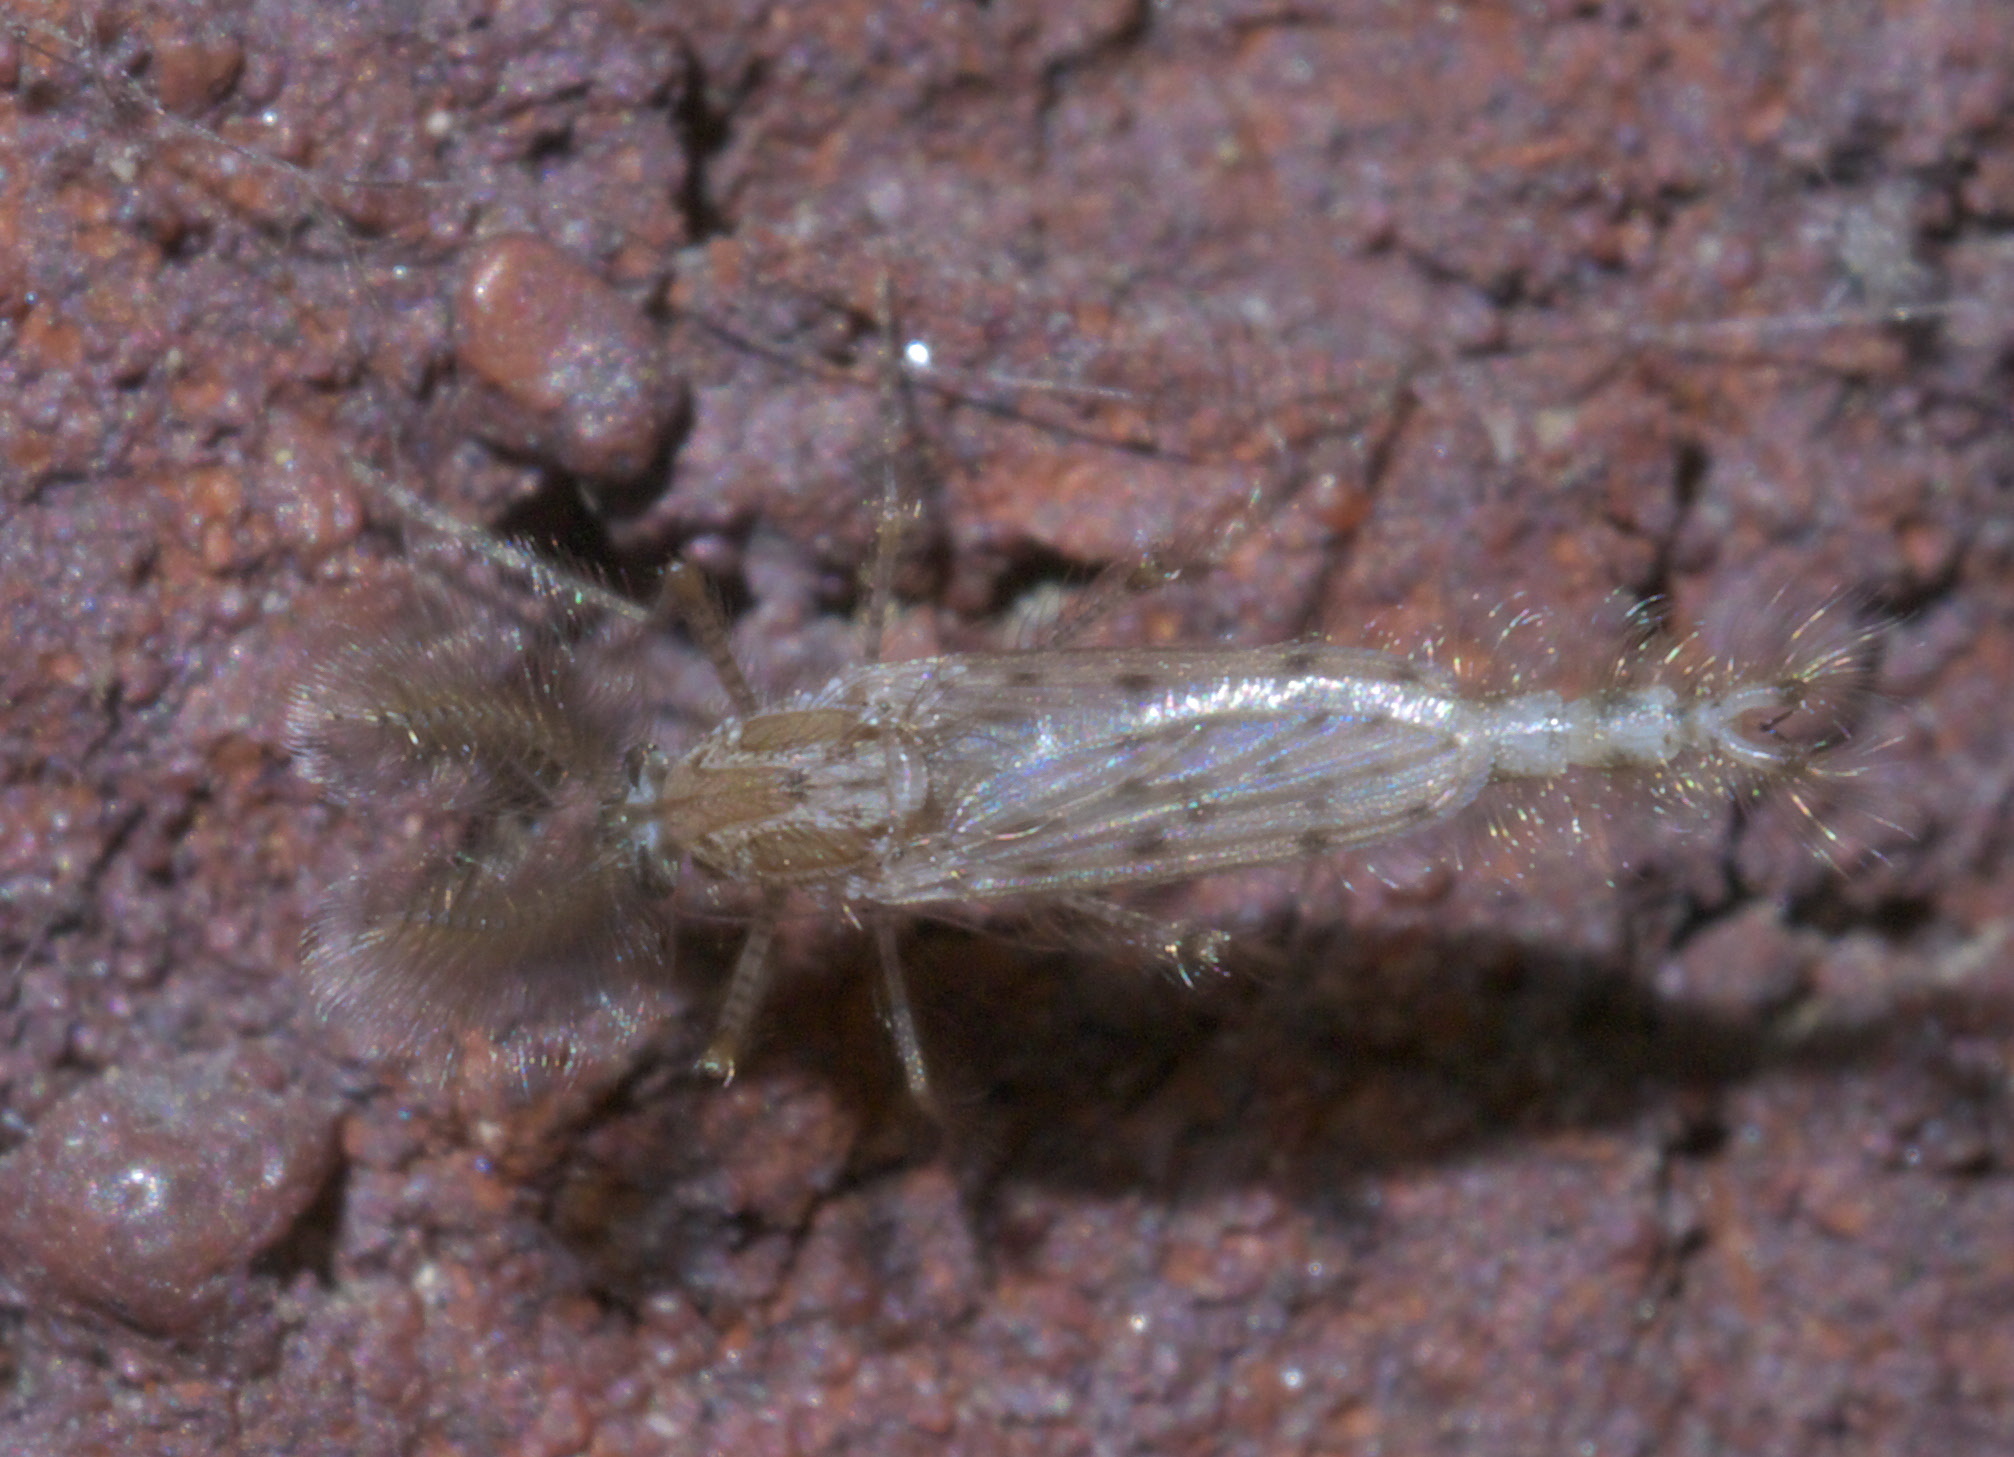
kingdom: Animalia
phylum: Arthropoda
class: Insecta
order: Diptera
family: Chaoboridae
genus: Chaoborus
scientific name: Chaoborus punctipennis
